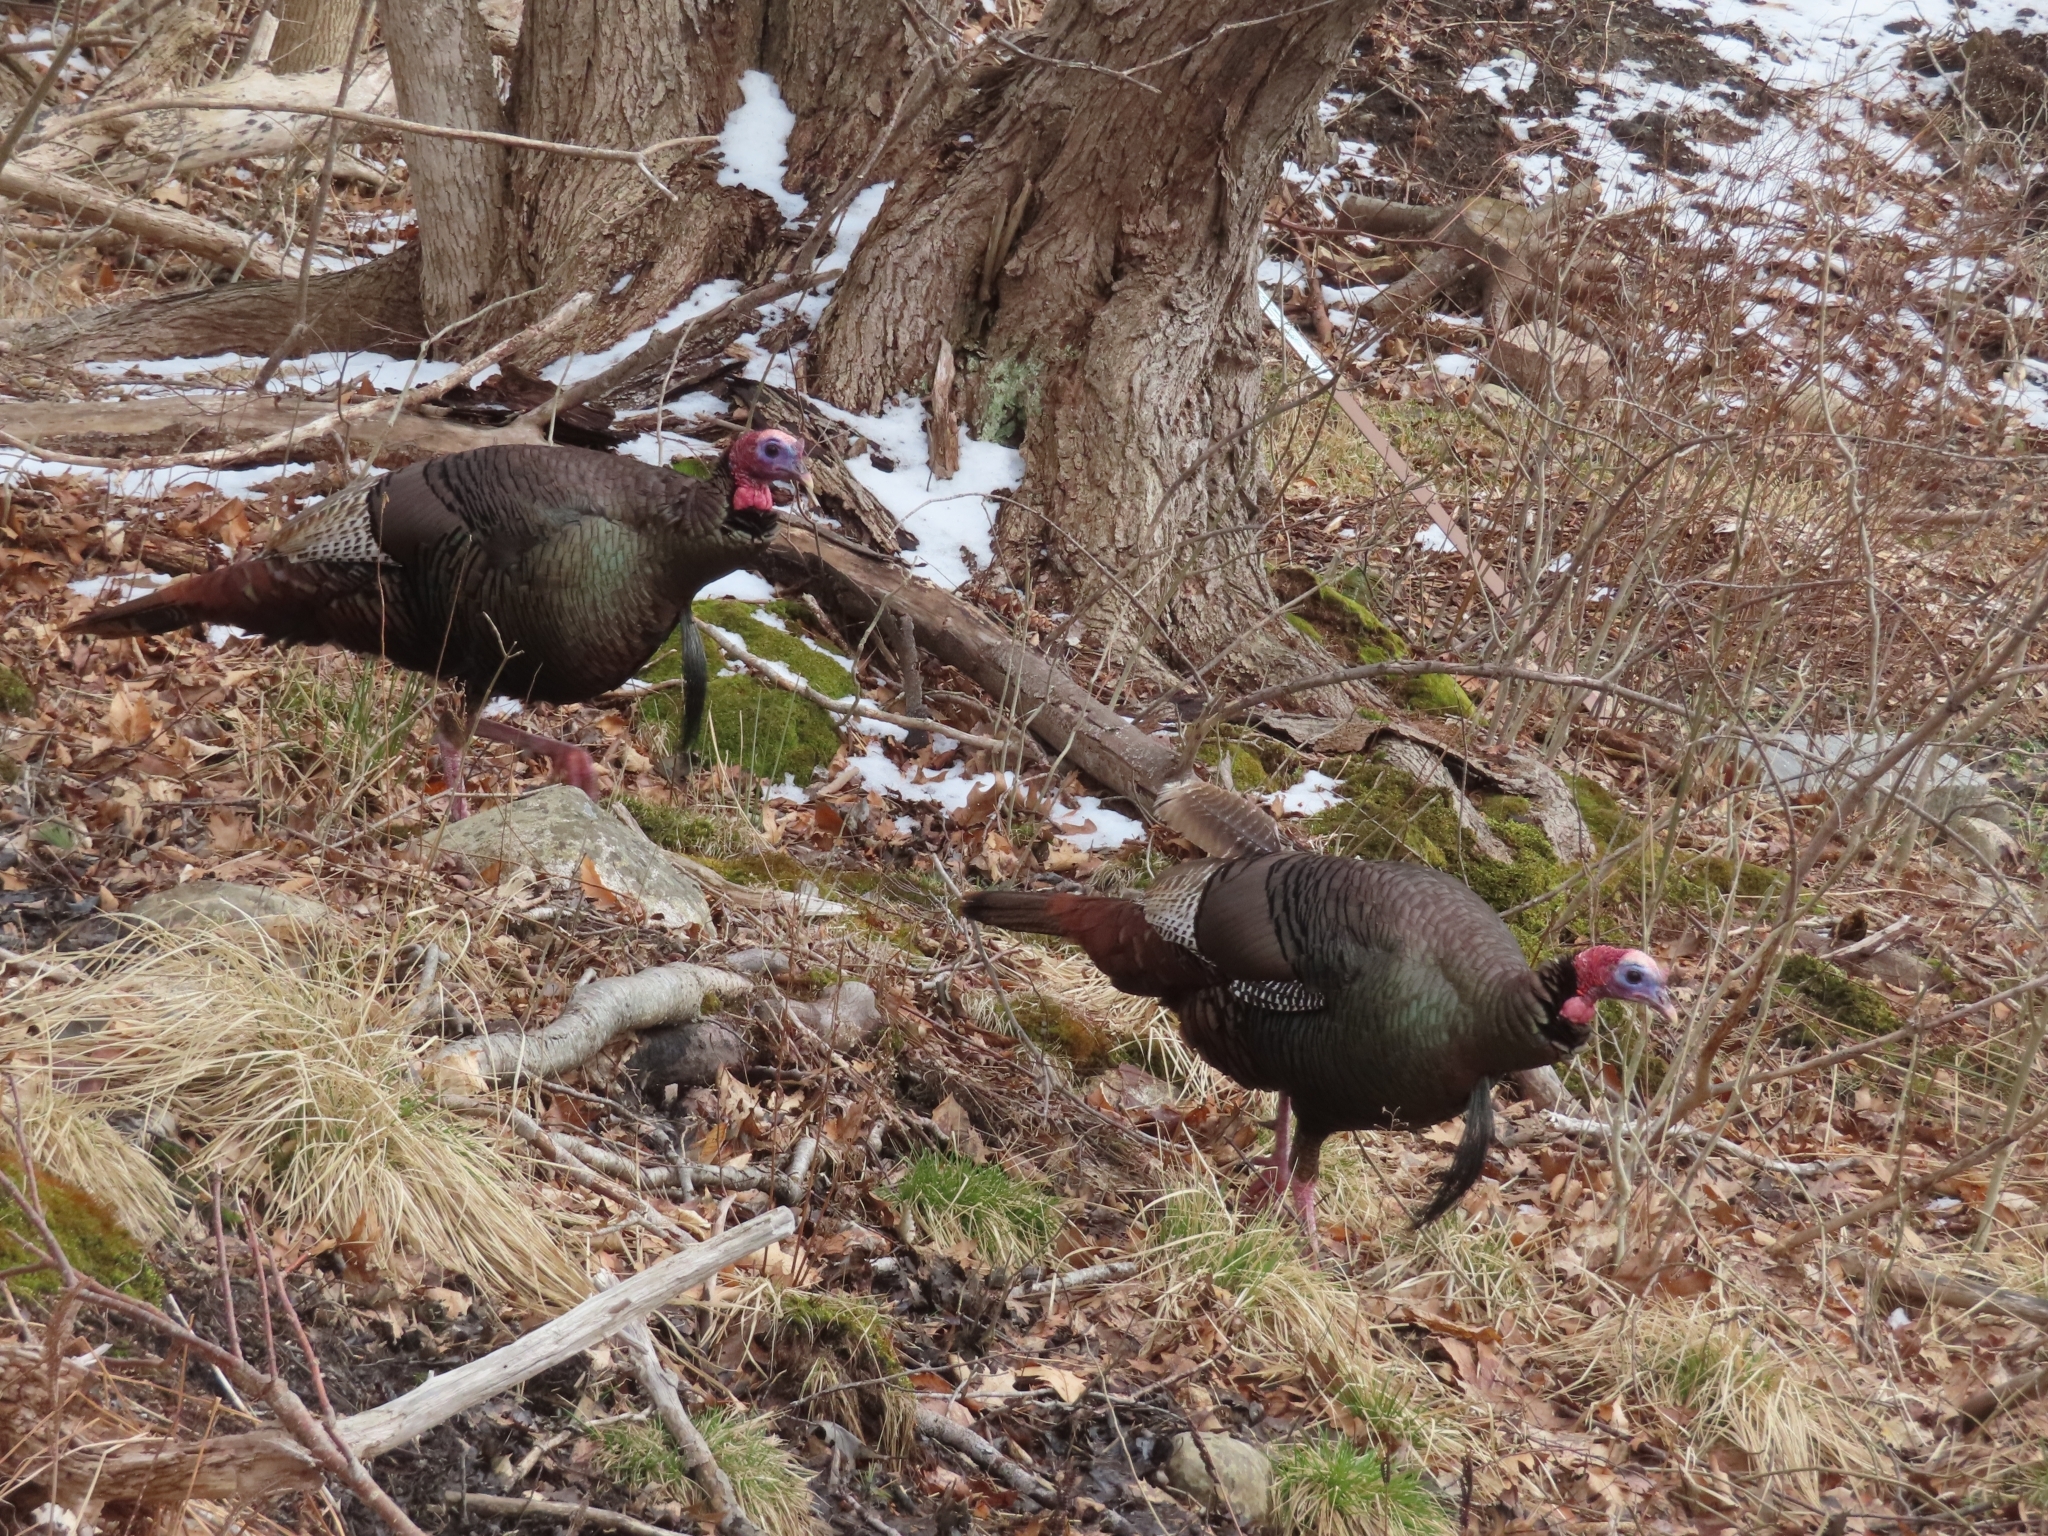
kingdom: Animalia
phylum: Chordata
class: Aves
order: Galliformes
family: Phasianidae
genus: Meleagris
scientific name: Meleagris gallopavo
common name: Wild turkey
